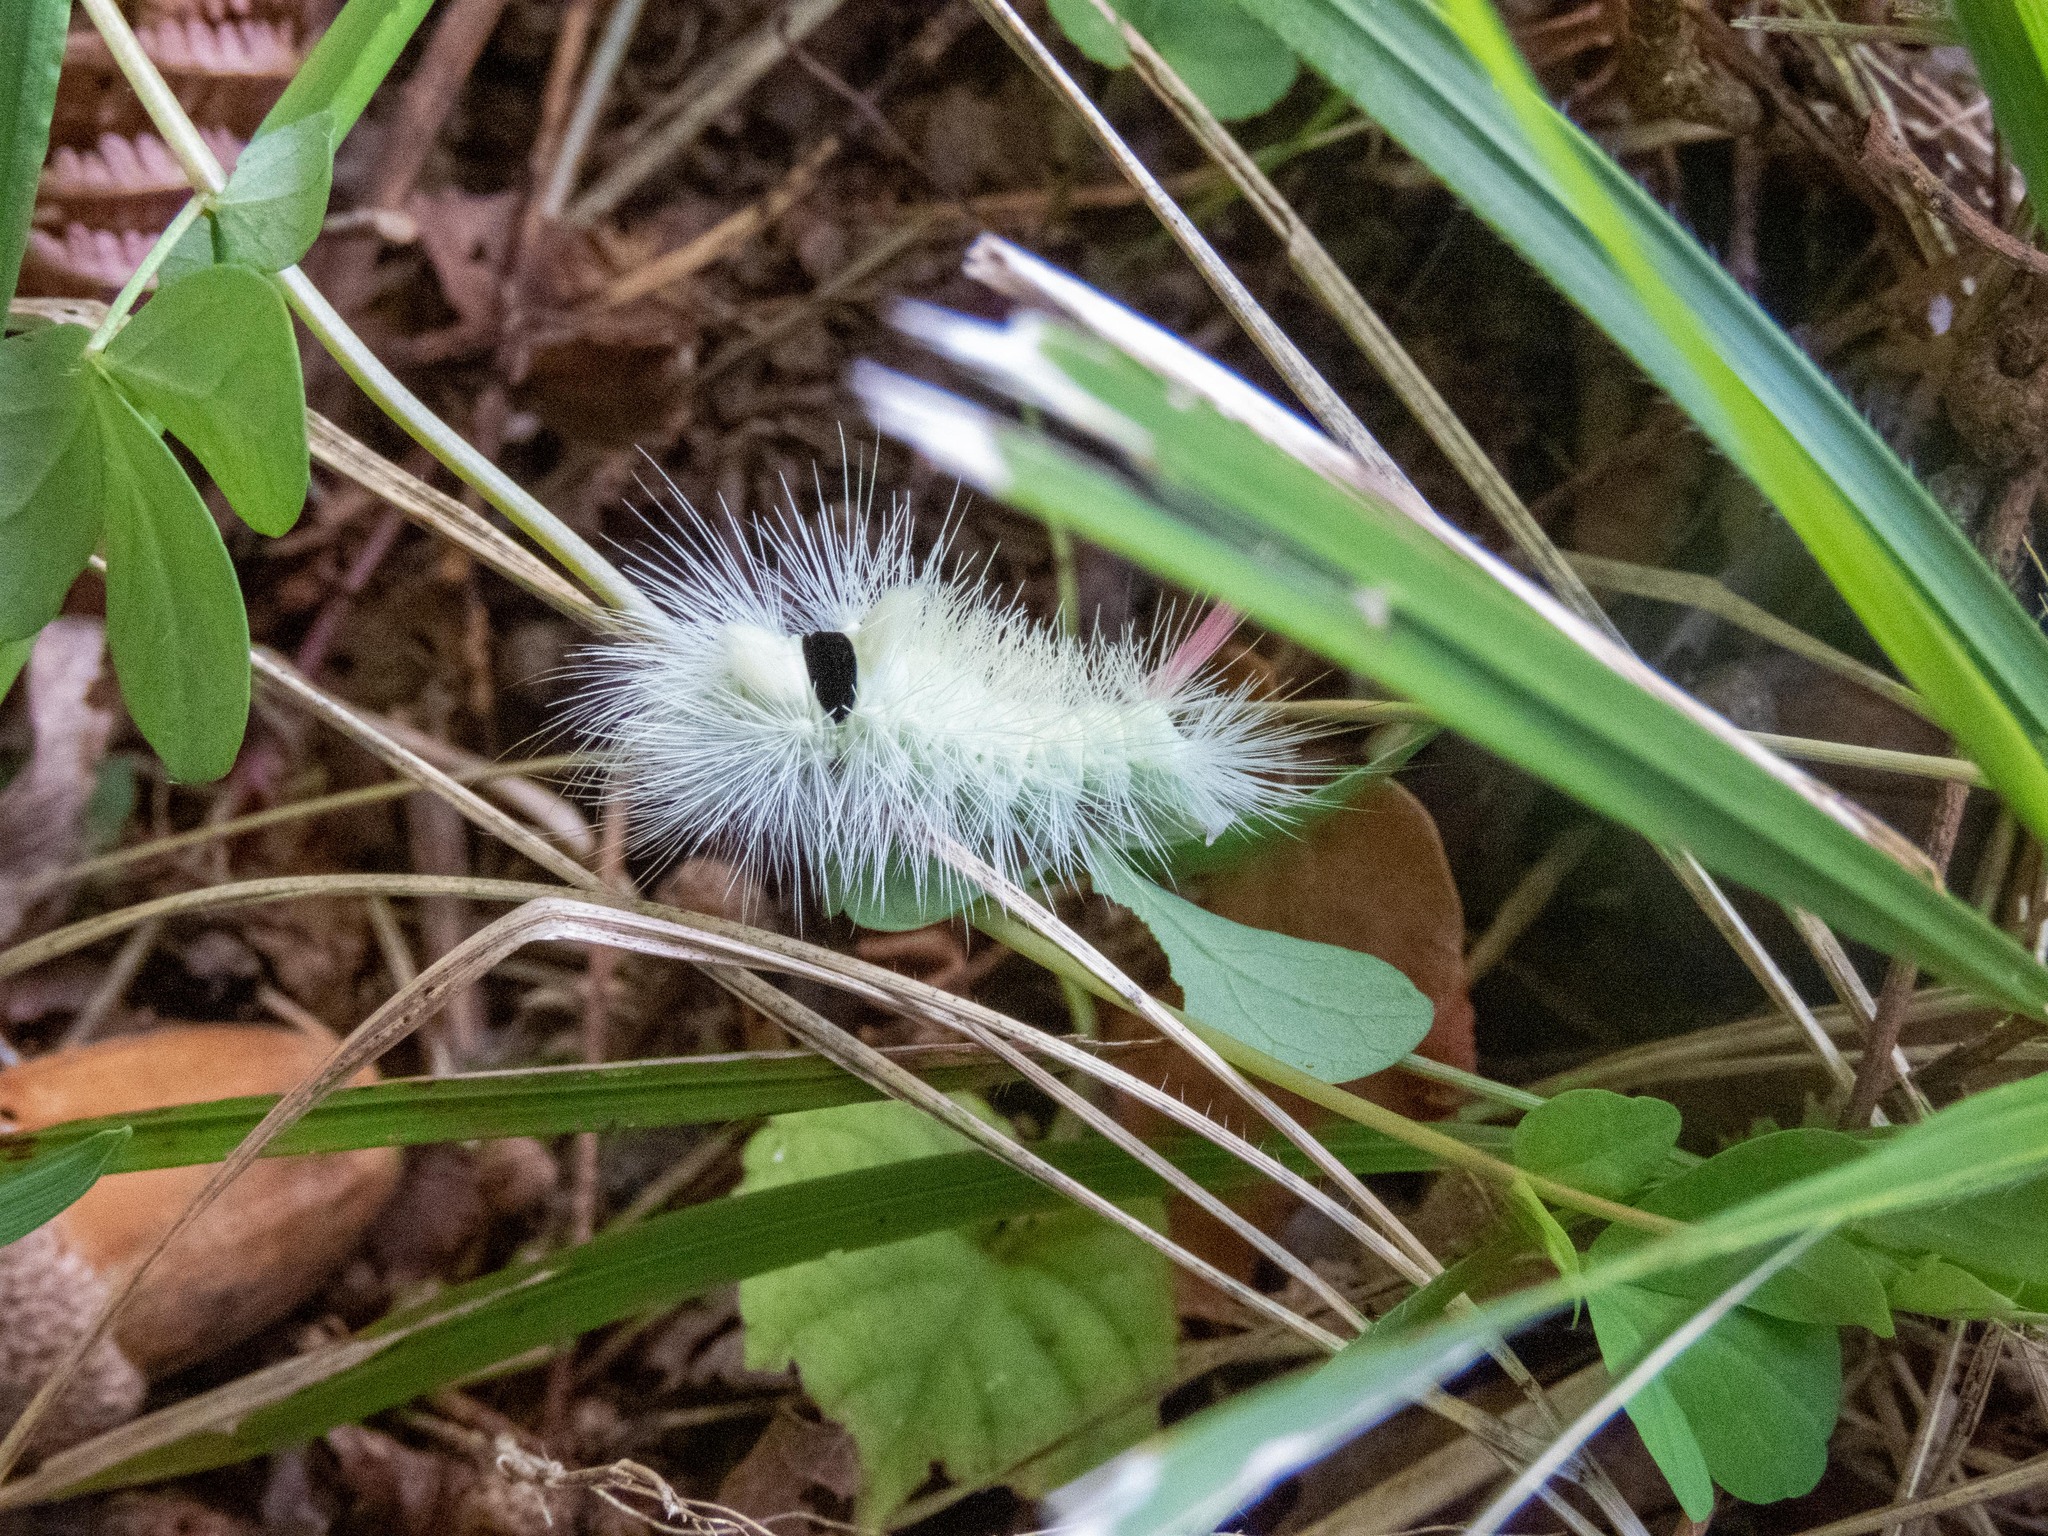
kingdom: Animalia
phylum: Arthropoda
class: Insecta
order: Lepidoptera
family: Erebidae
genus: Calliteara
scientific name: Calliteara pudibunda
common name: Pale tussock
